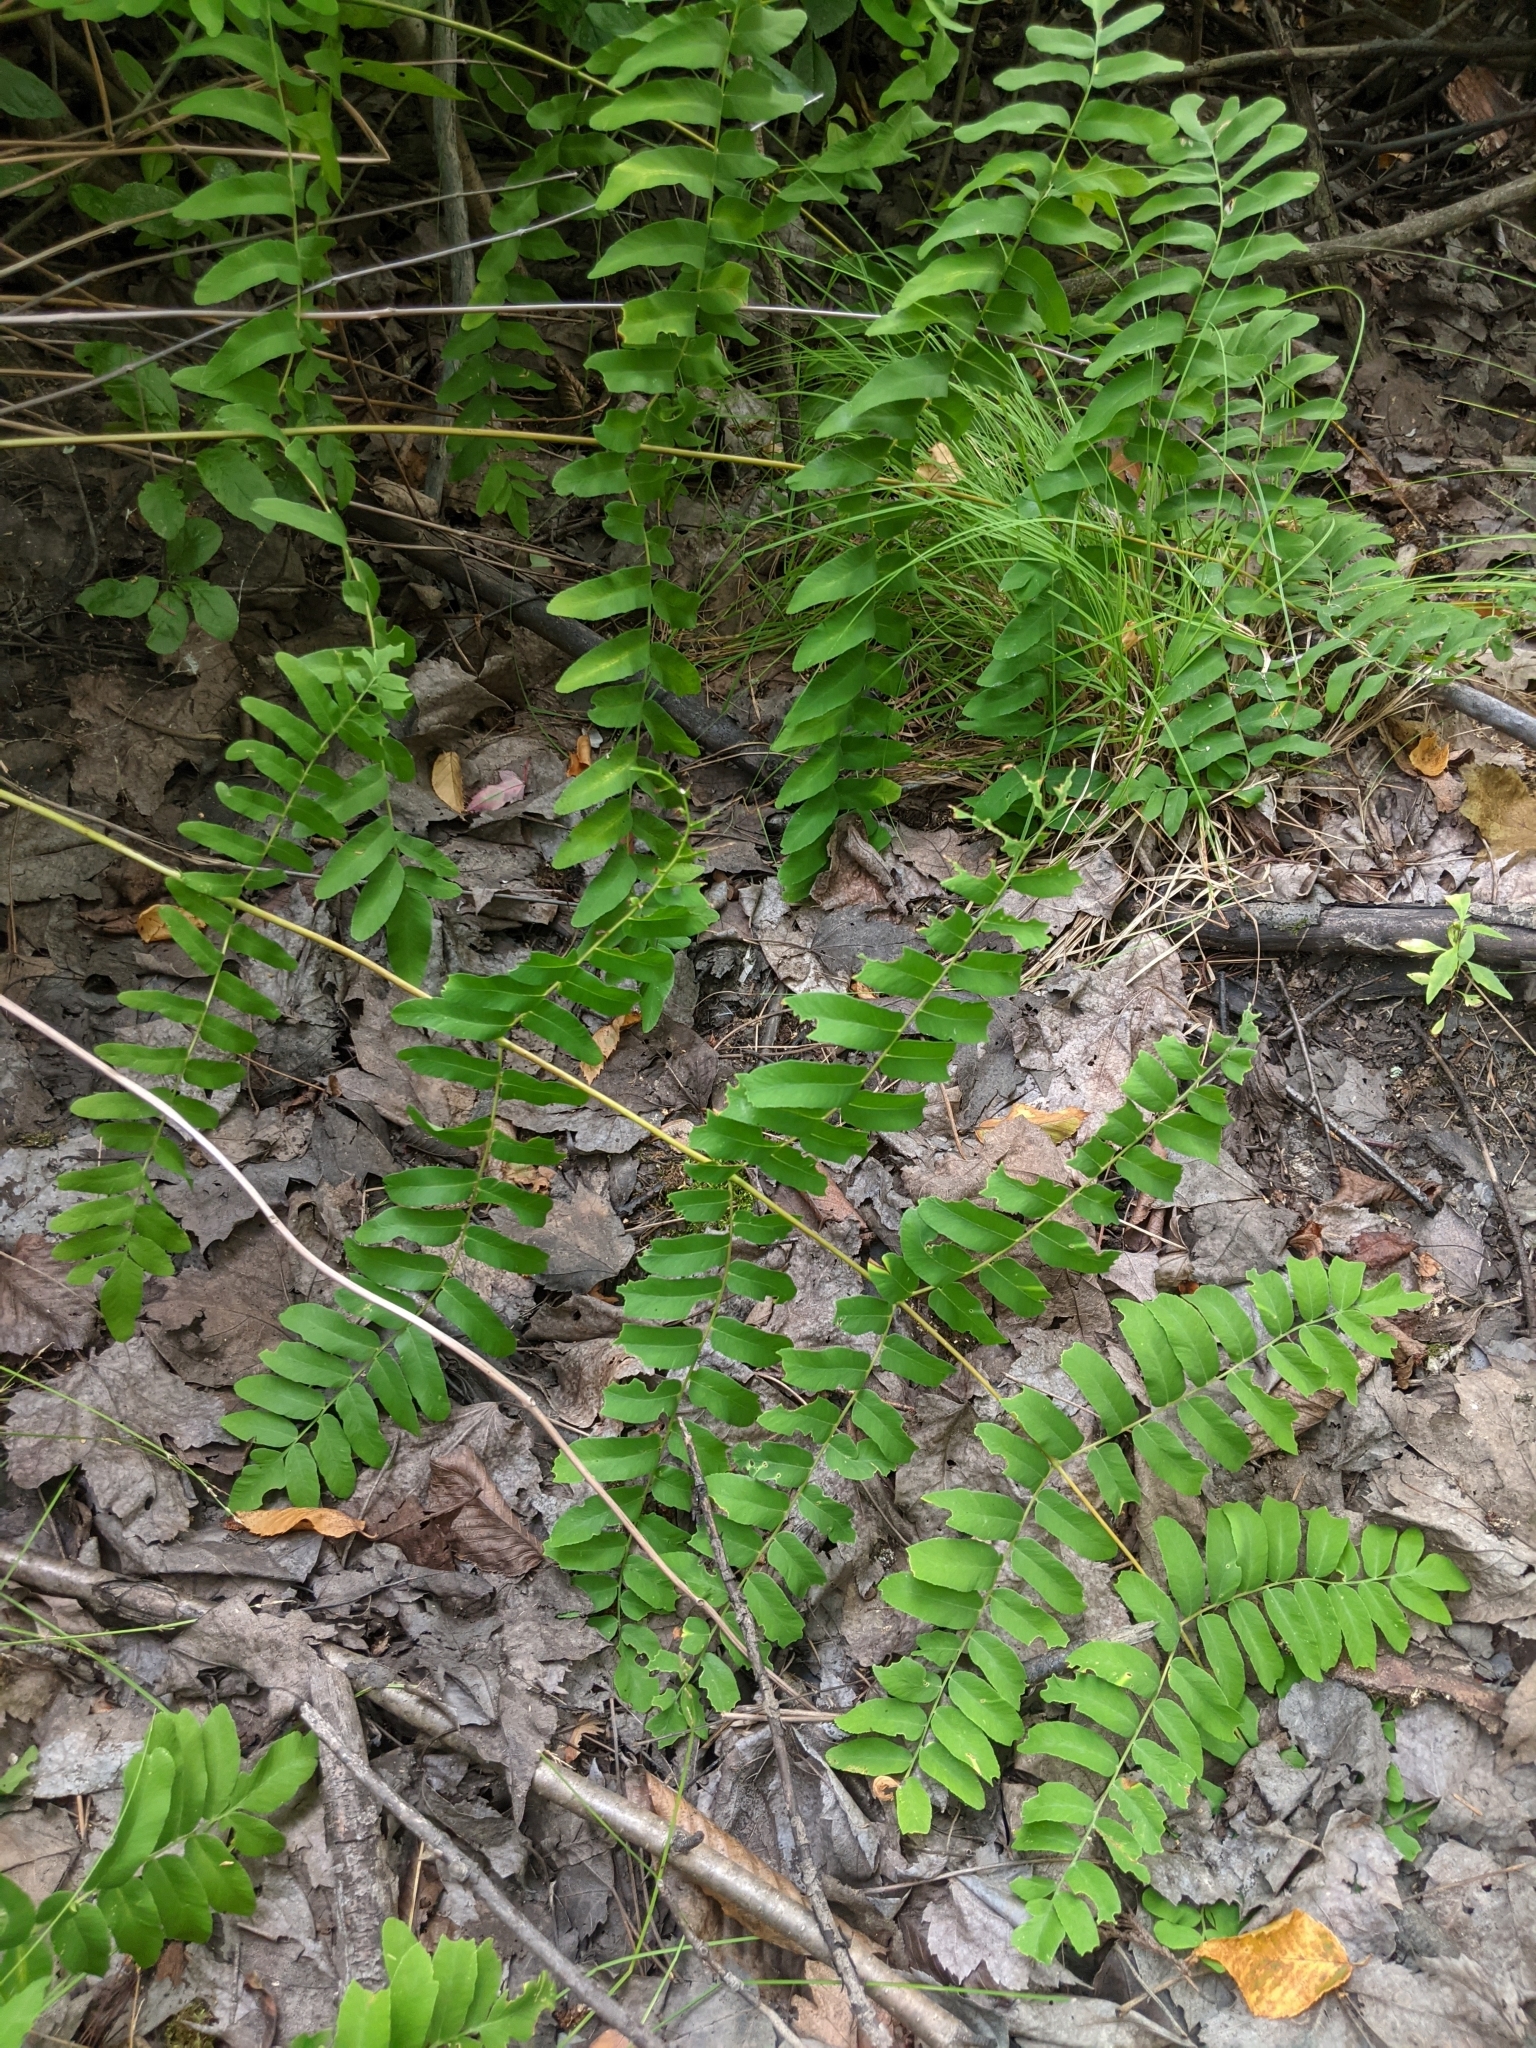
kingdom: Plantae
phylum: Tracheophyta
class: Polypodiopsida
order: Osmundales
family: Osmundaceae
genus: Osmunda
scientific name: Osmunda spectabilis
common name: American royal fern
